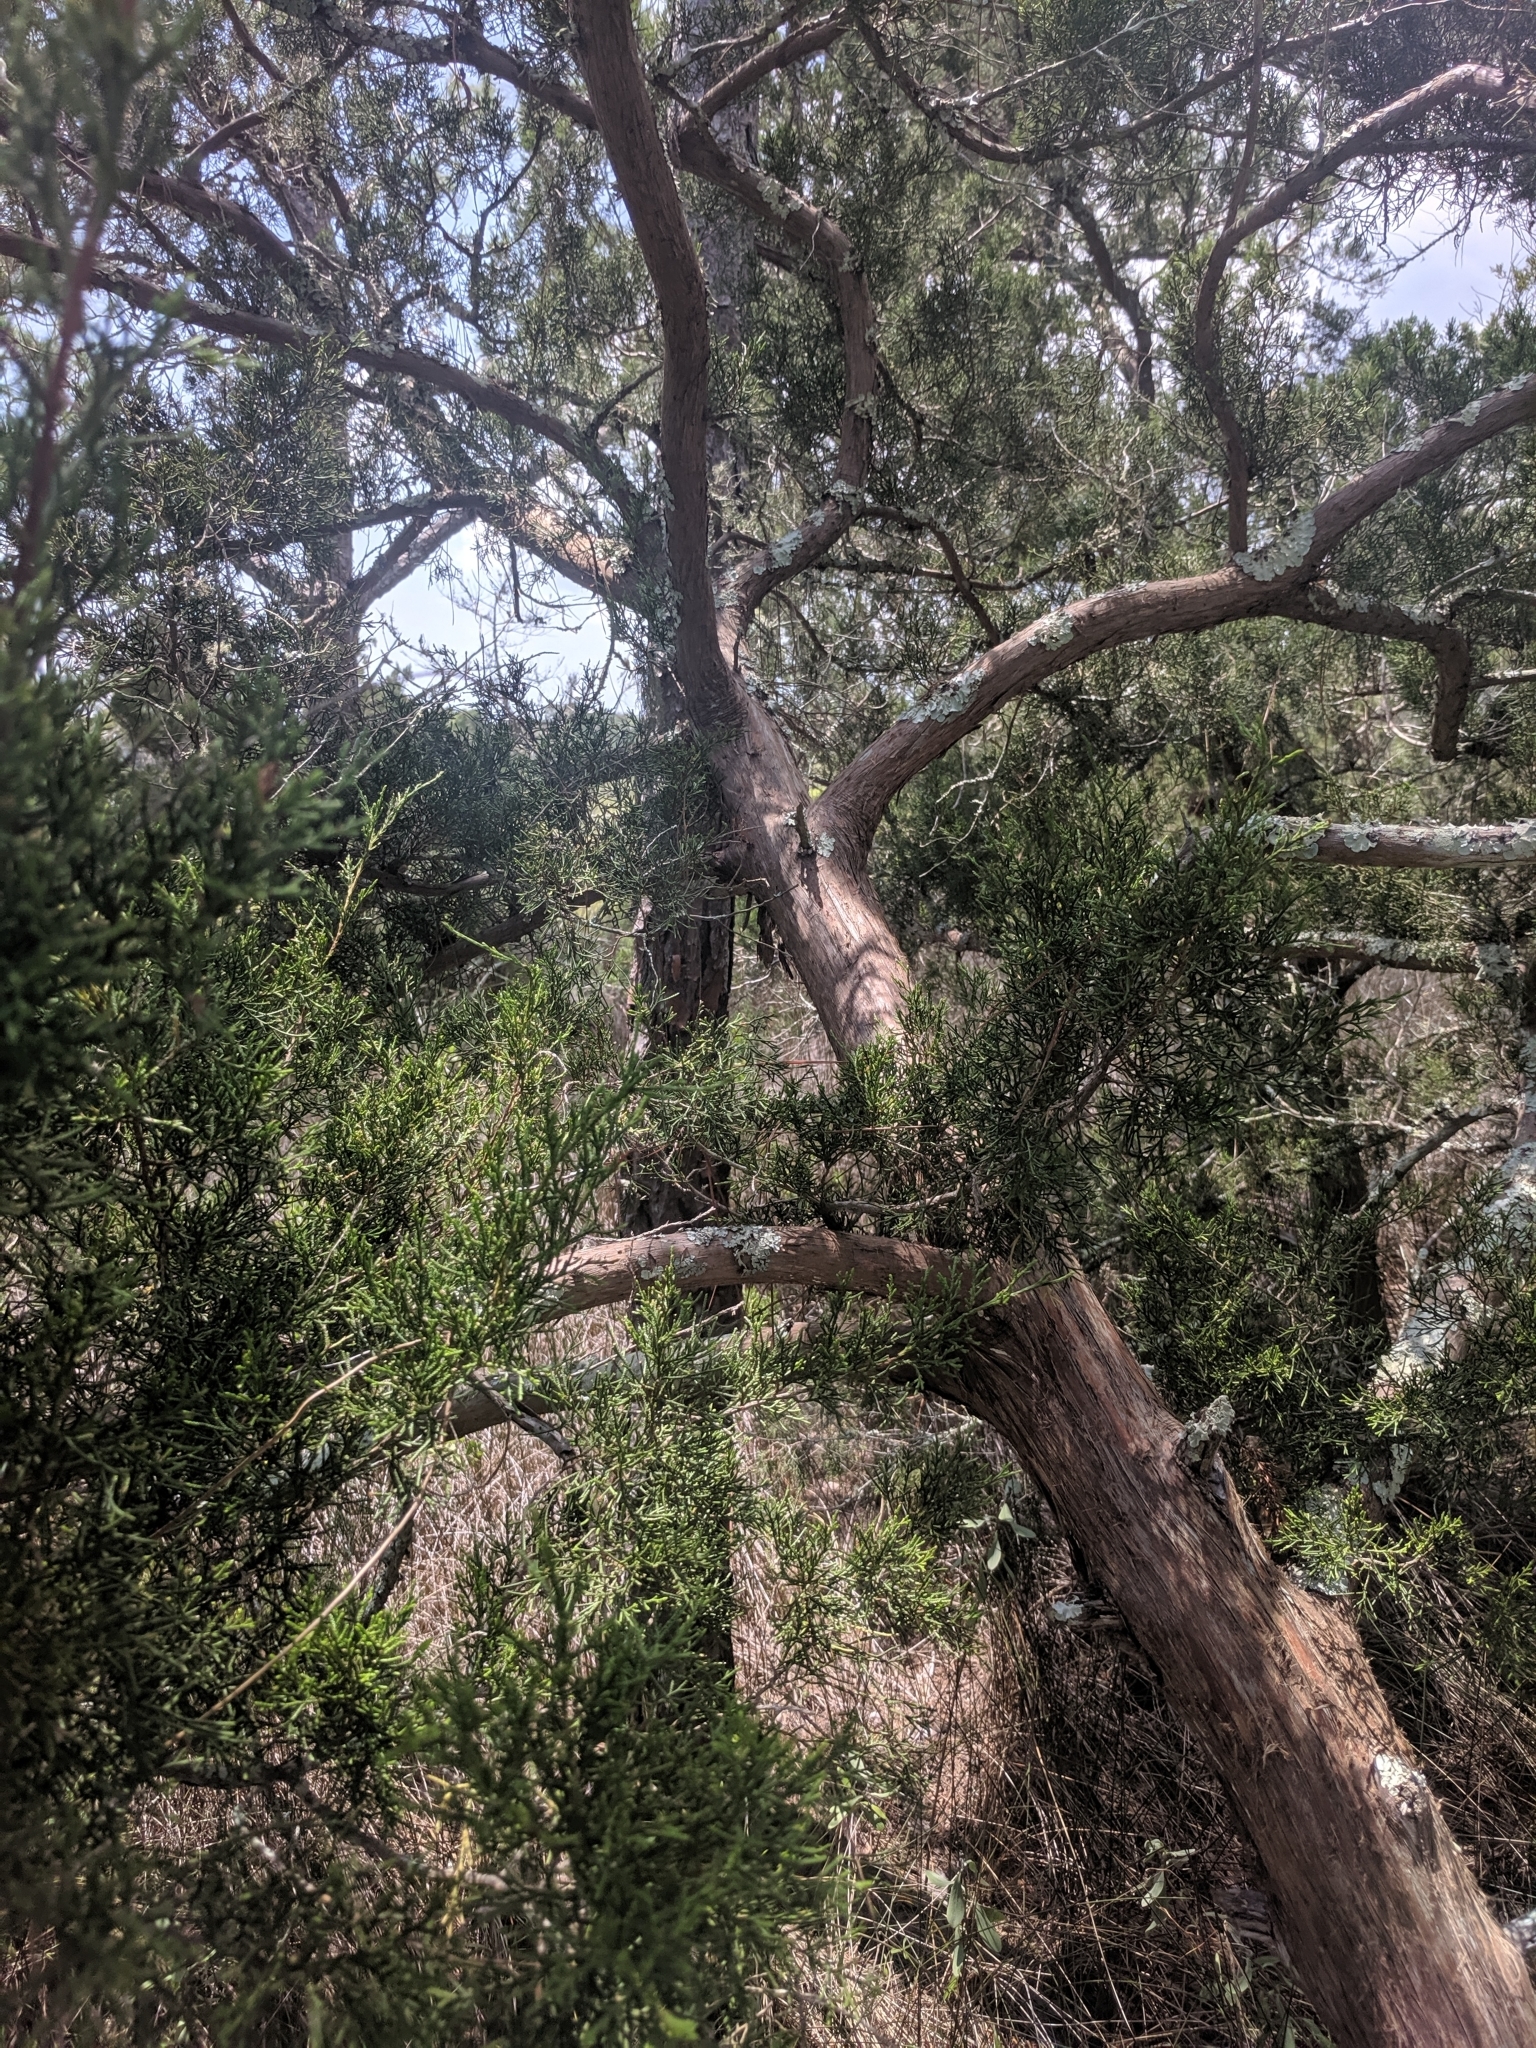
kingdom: Plantae
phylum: Tracheophyta
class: Pinopsida
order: Pinales
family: Cupressaceae
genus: Juniperus
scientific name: Juniperus virginiana
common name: Red juniper
